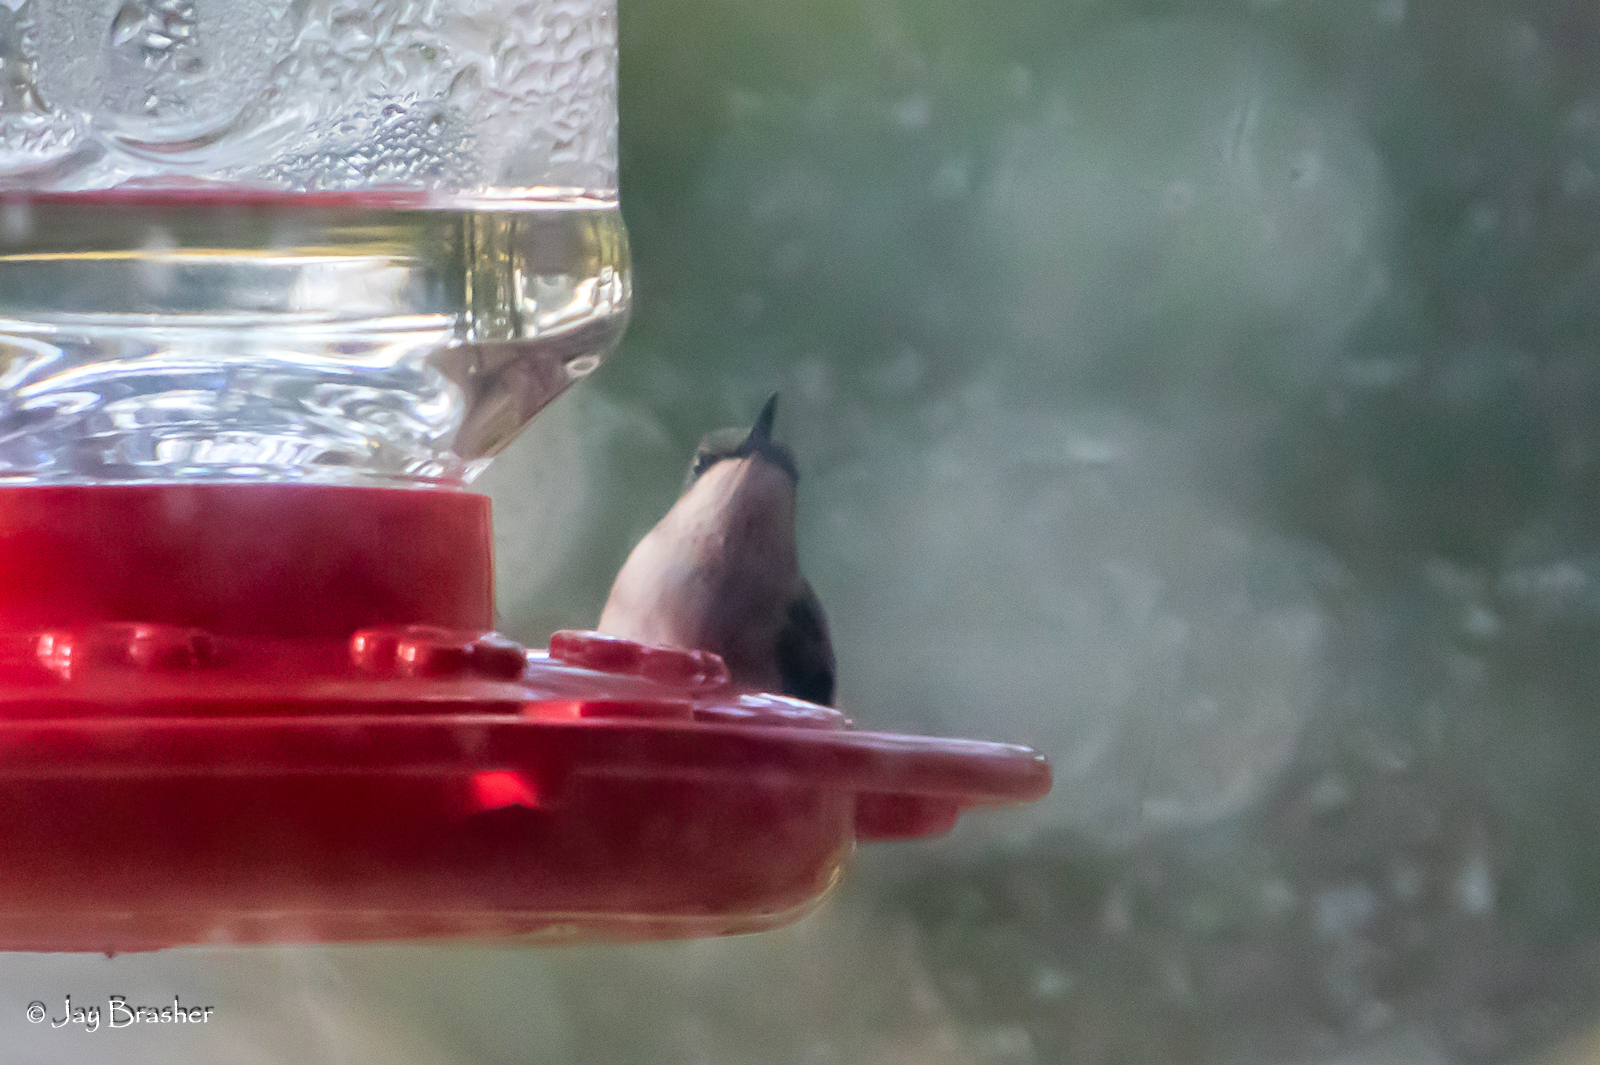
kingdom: Animalia
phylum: Chordata
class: Aves
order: Apodiformes
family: Trochilidae
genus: Archilochus
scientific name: Archilochus colubris
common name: Ruby-throated hummingbird
